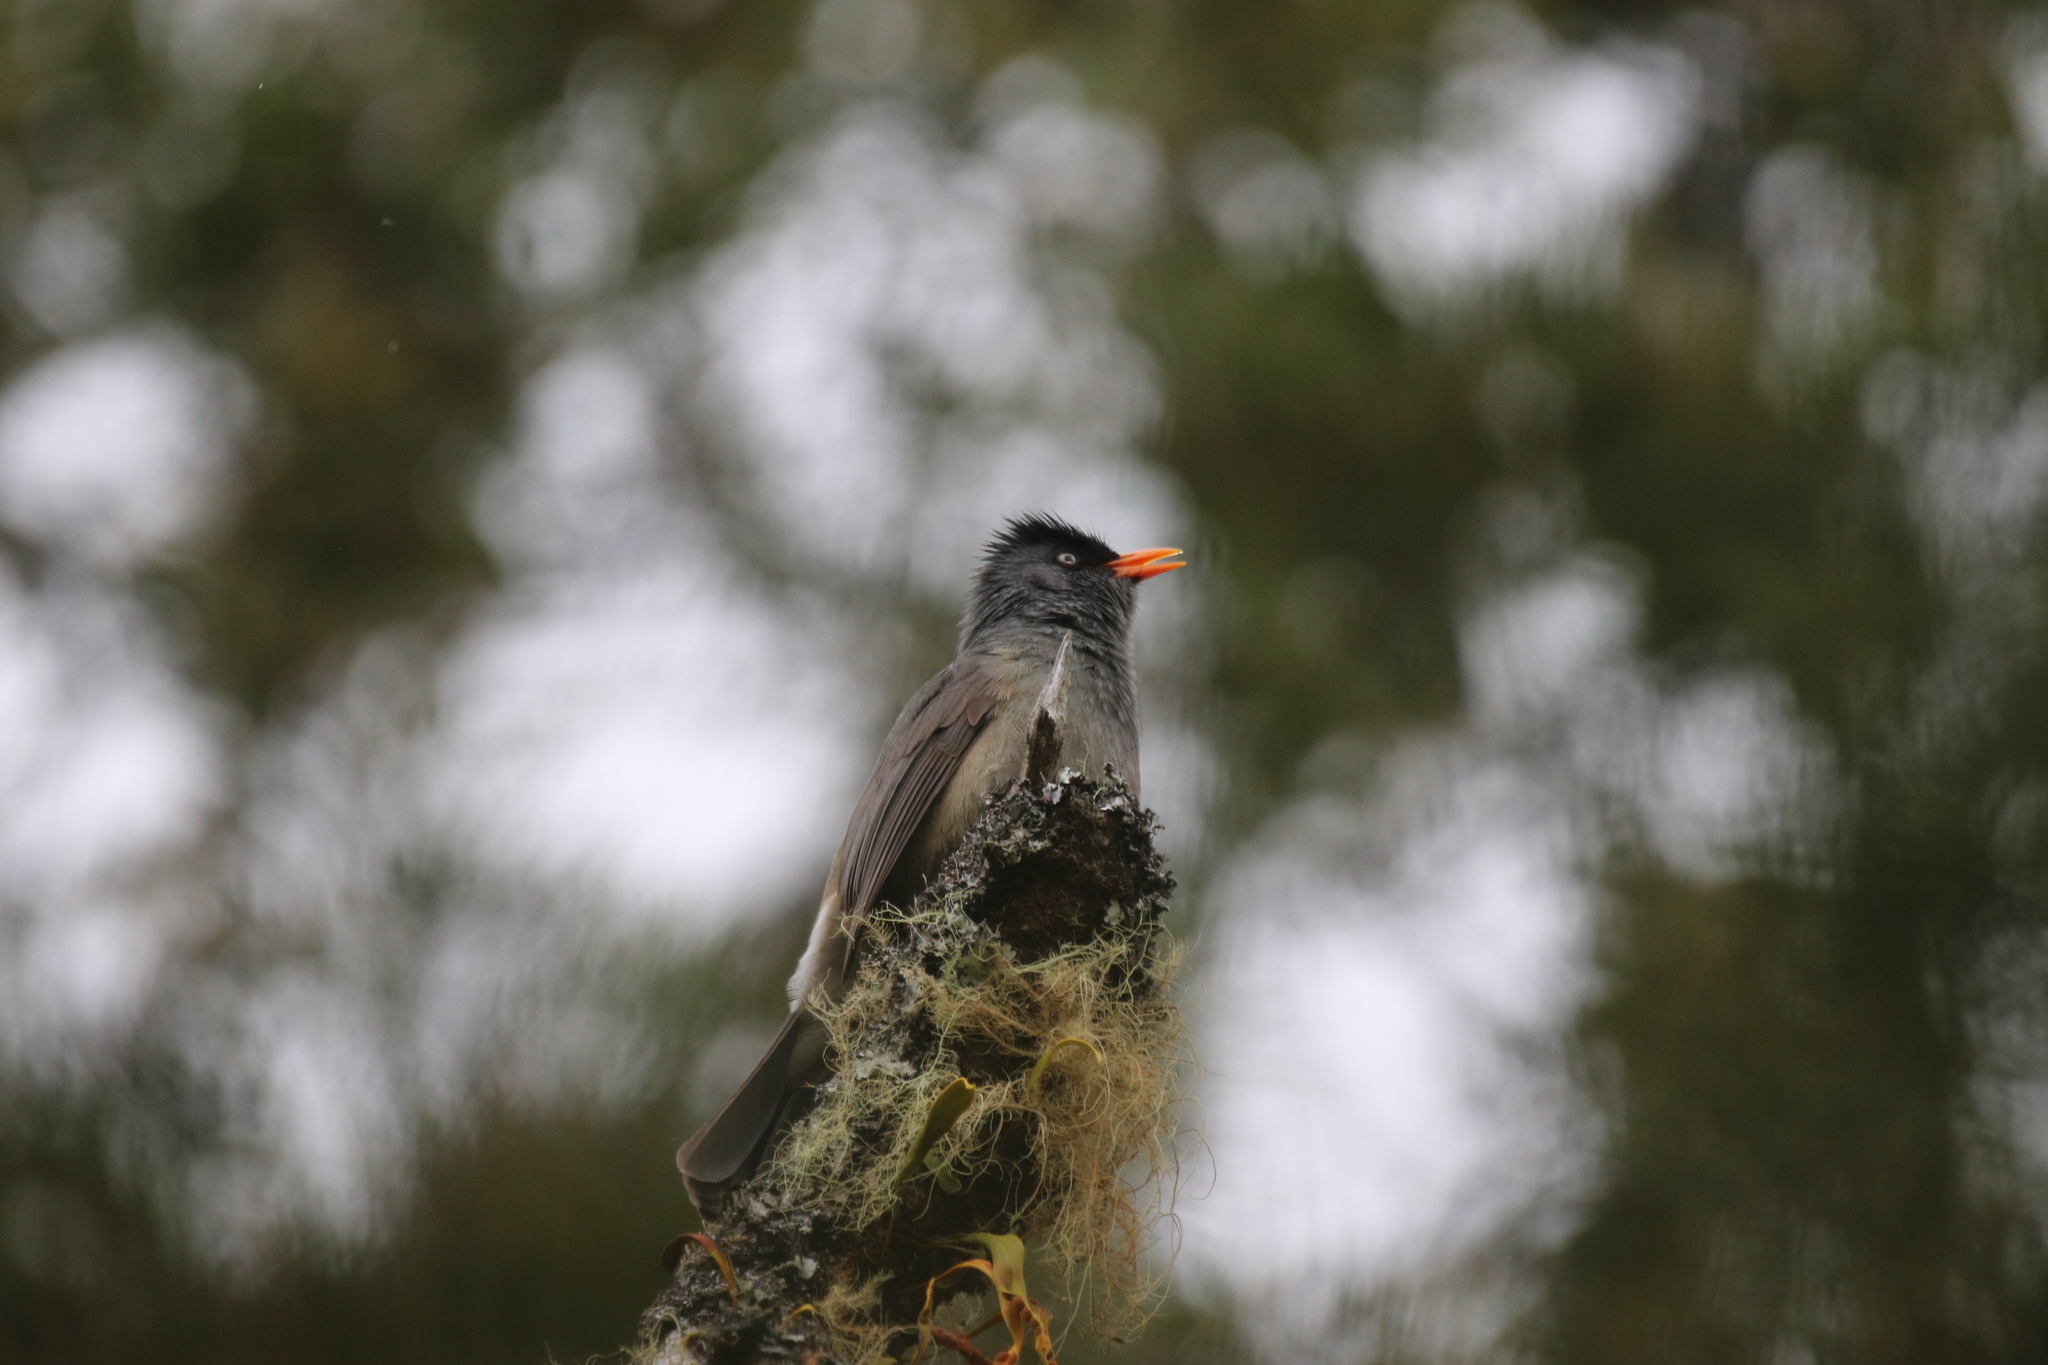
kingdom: Animalia
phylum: Chordata
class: Aves
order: Passeriformes
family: Pycnonotidae
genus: Hypsipetes
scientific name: Hypsipetes borbonicus
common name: Reunion bulbul
